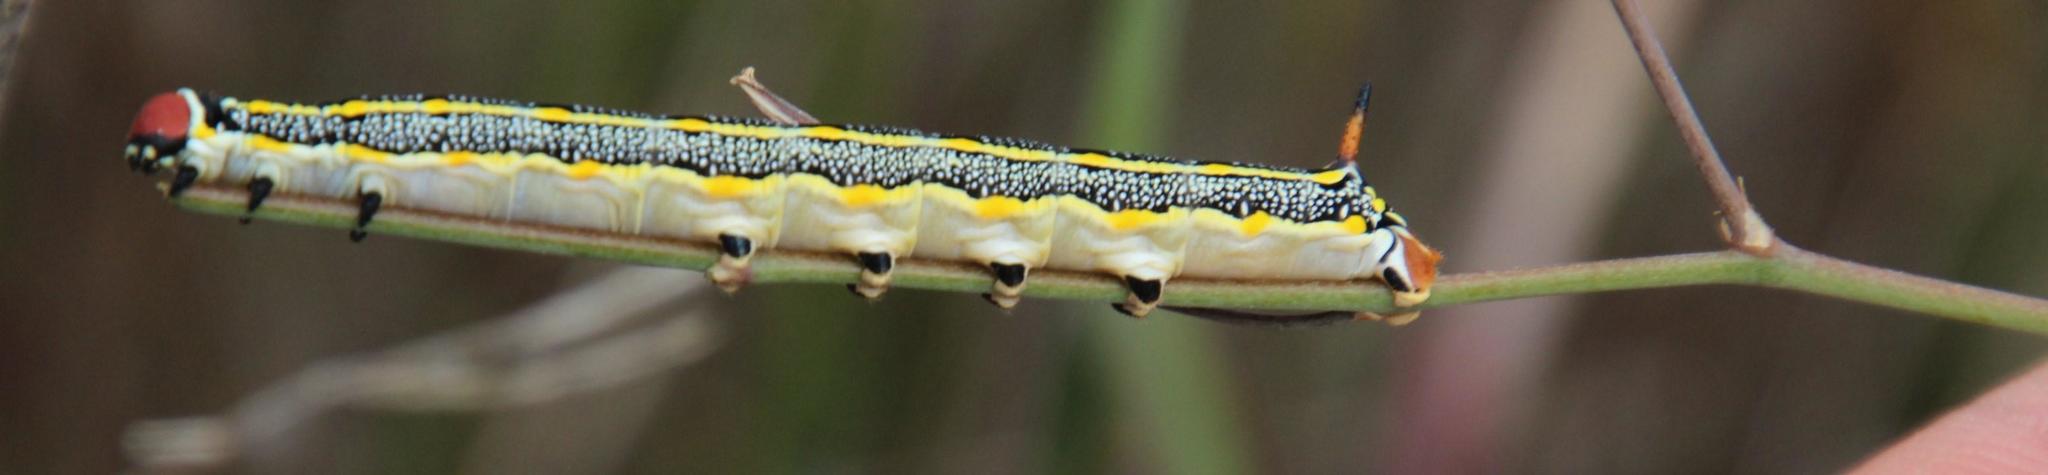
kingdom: Animalia
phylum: Arthropoda
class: Insecta
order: Lepidoptera
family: Sphingidae
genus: Hyles
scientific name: Hyles livornica
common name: Striped hawk-moth
